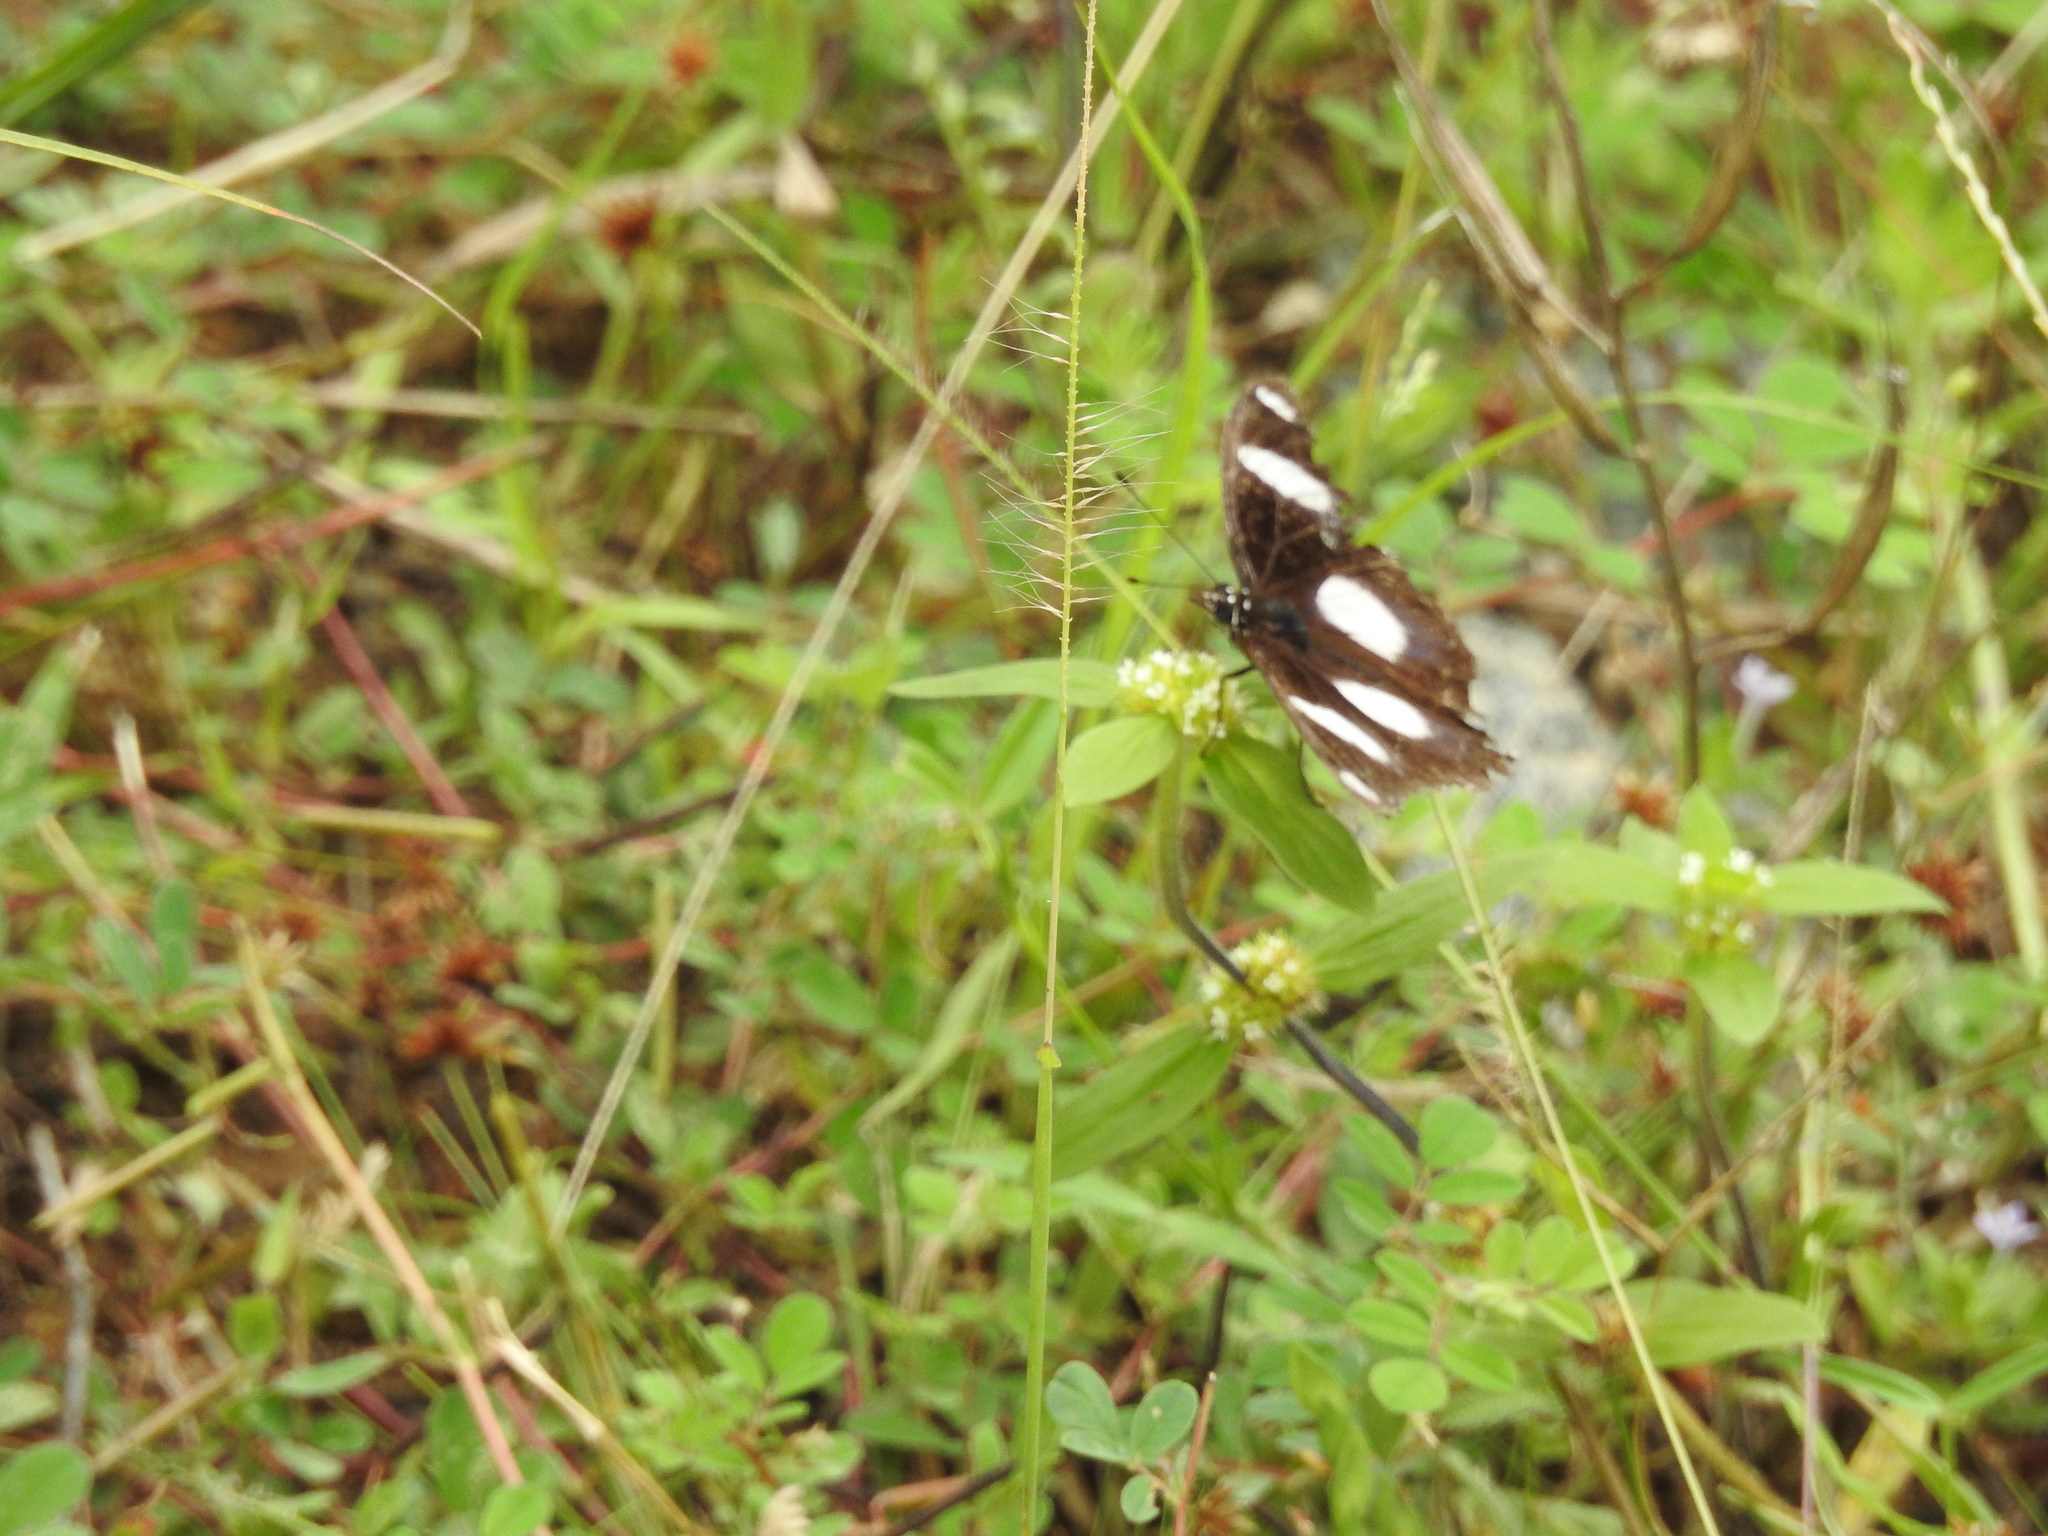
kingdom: Animalia
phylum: Arthropoda
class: Insecta
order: Lepidoptera
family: Nymphalidae
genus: Hypolimnas
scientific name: Hypolimnas misippus
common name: False plain tiger
